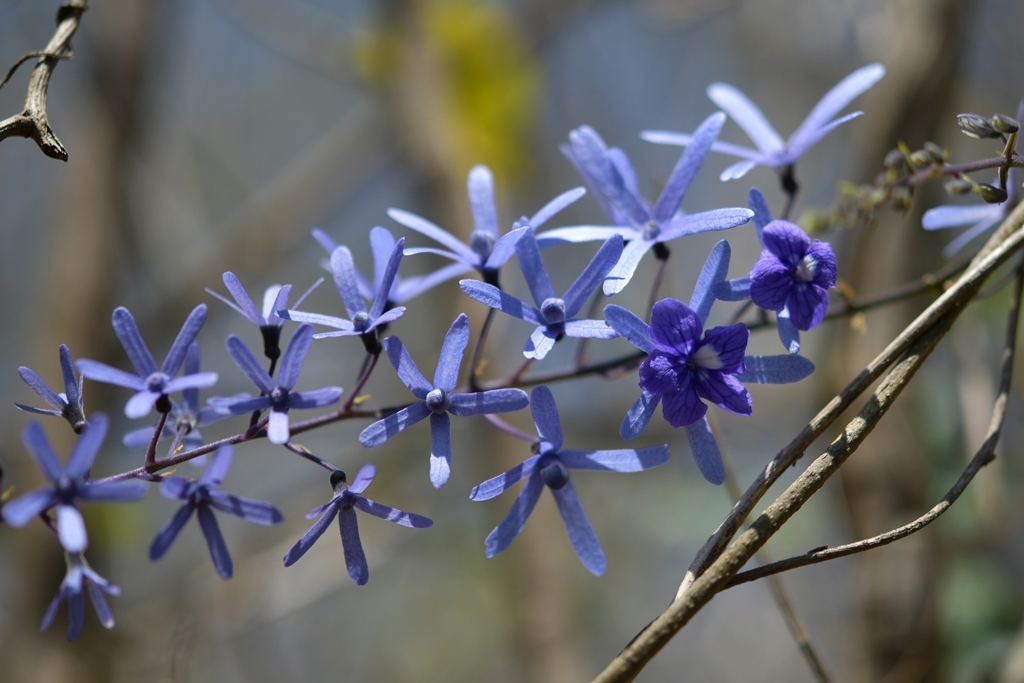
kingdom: Plantae
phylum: Tracheophyta
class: Magnoliopsida
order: Lamiales
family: Verbenaceae
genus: Petrea
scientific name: Petrea volubilis
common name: Queen's-wreath
